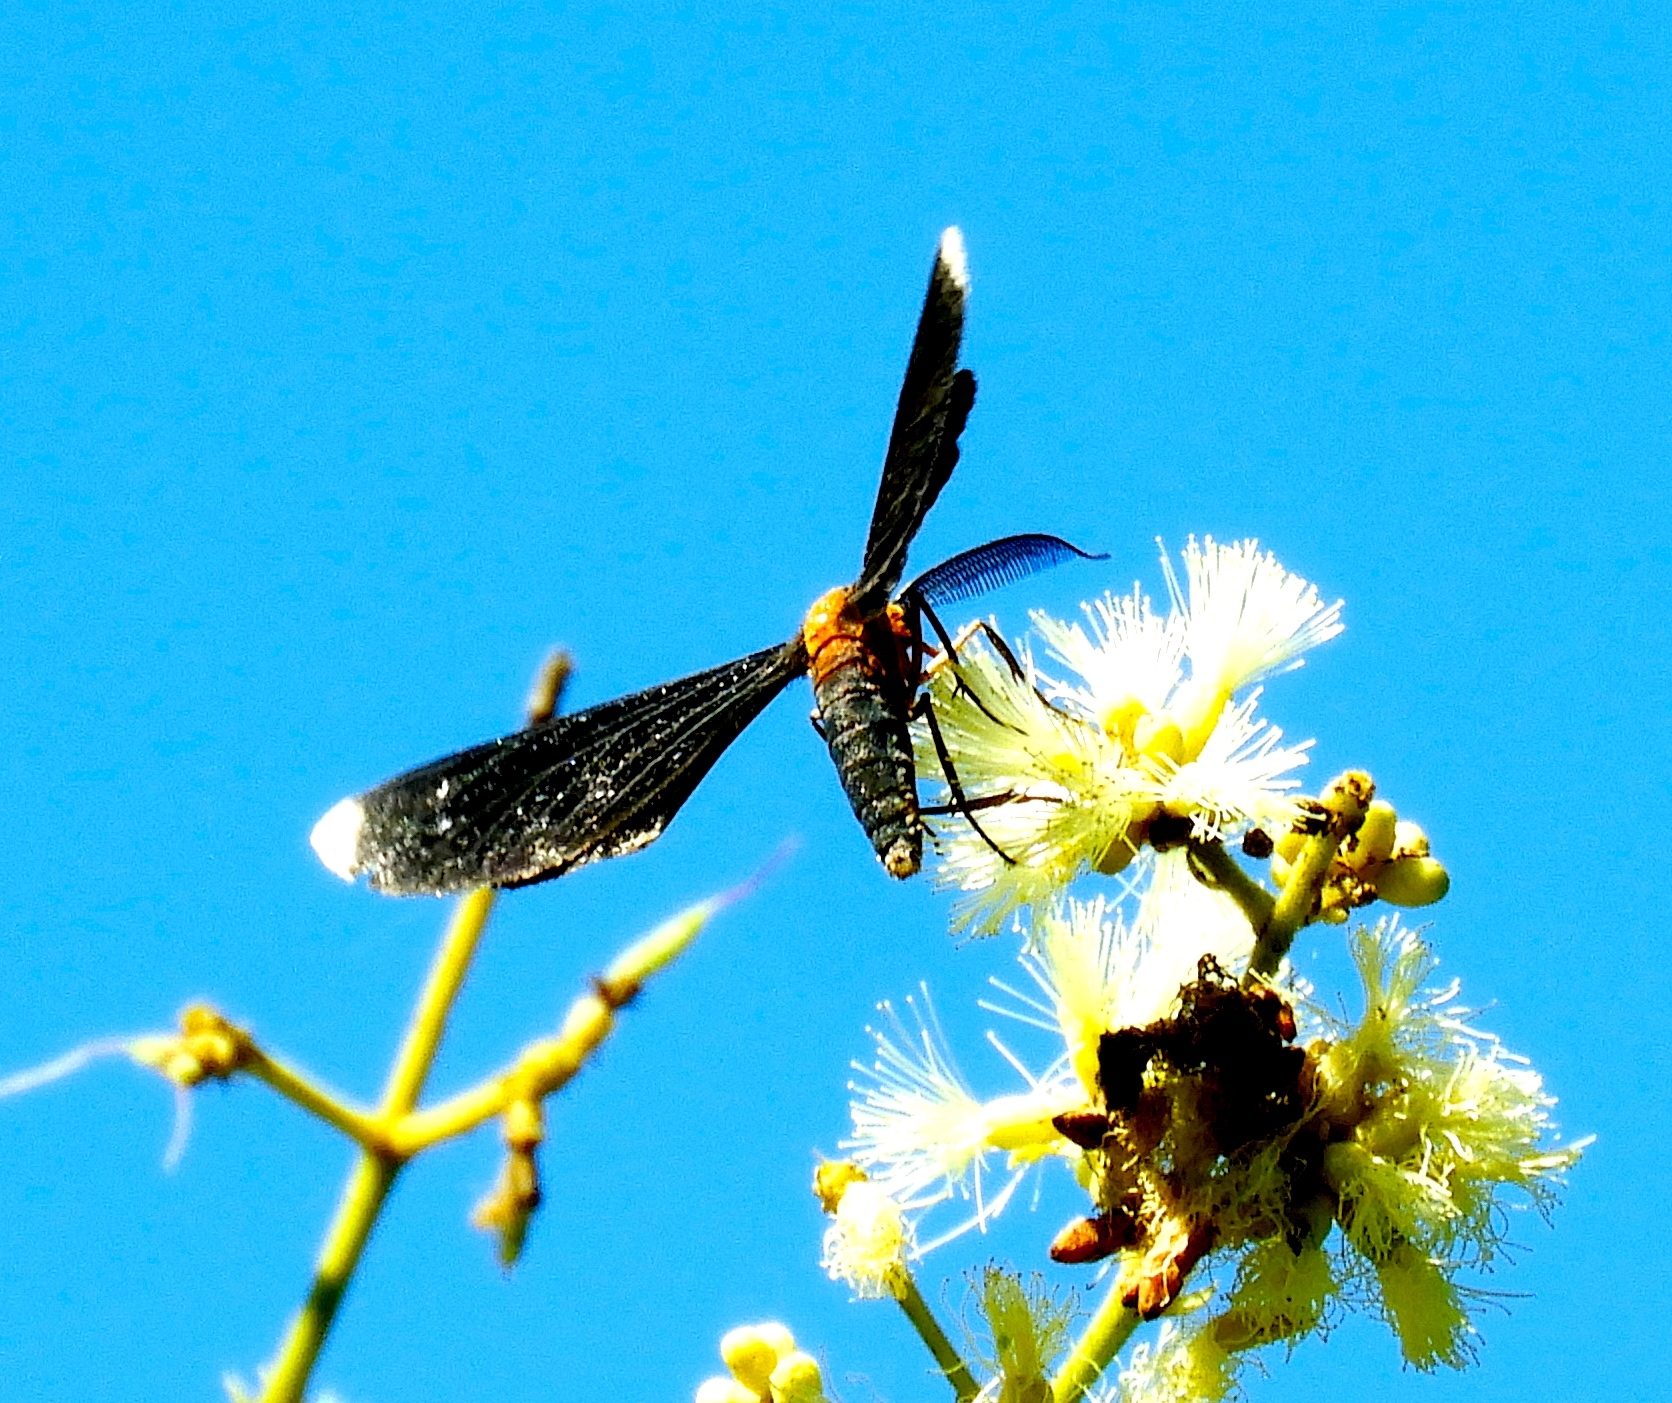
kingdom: Animalia
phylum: Arthropoda
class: Insecta
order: Lepidoptera
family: Geometridae
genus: Melanchroia
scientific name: Melanchroia chephise
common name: White-tipped black
